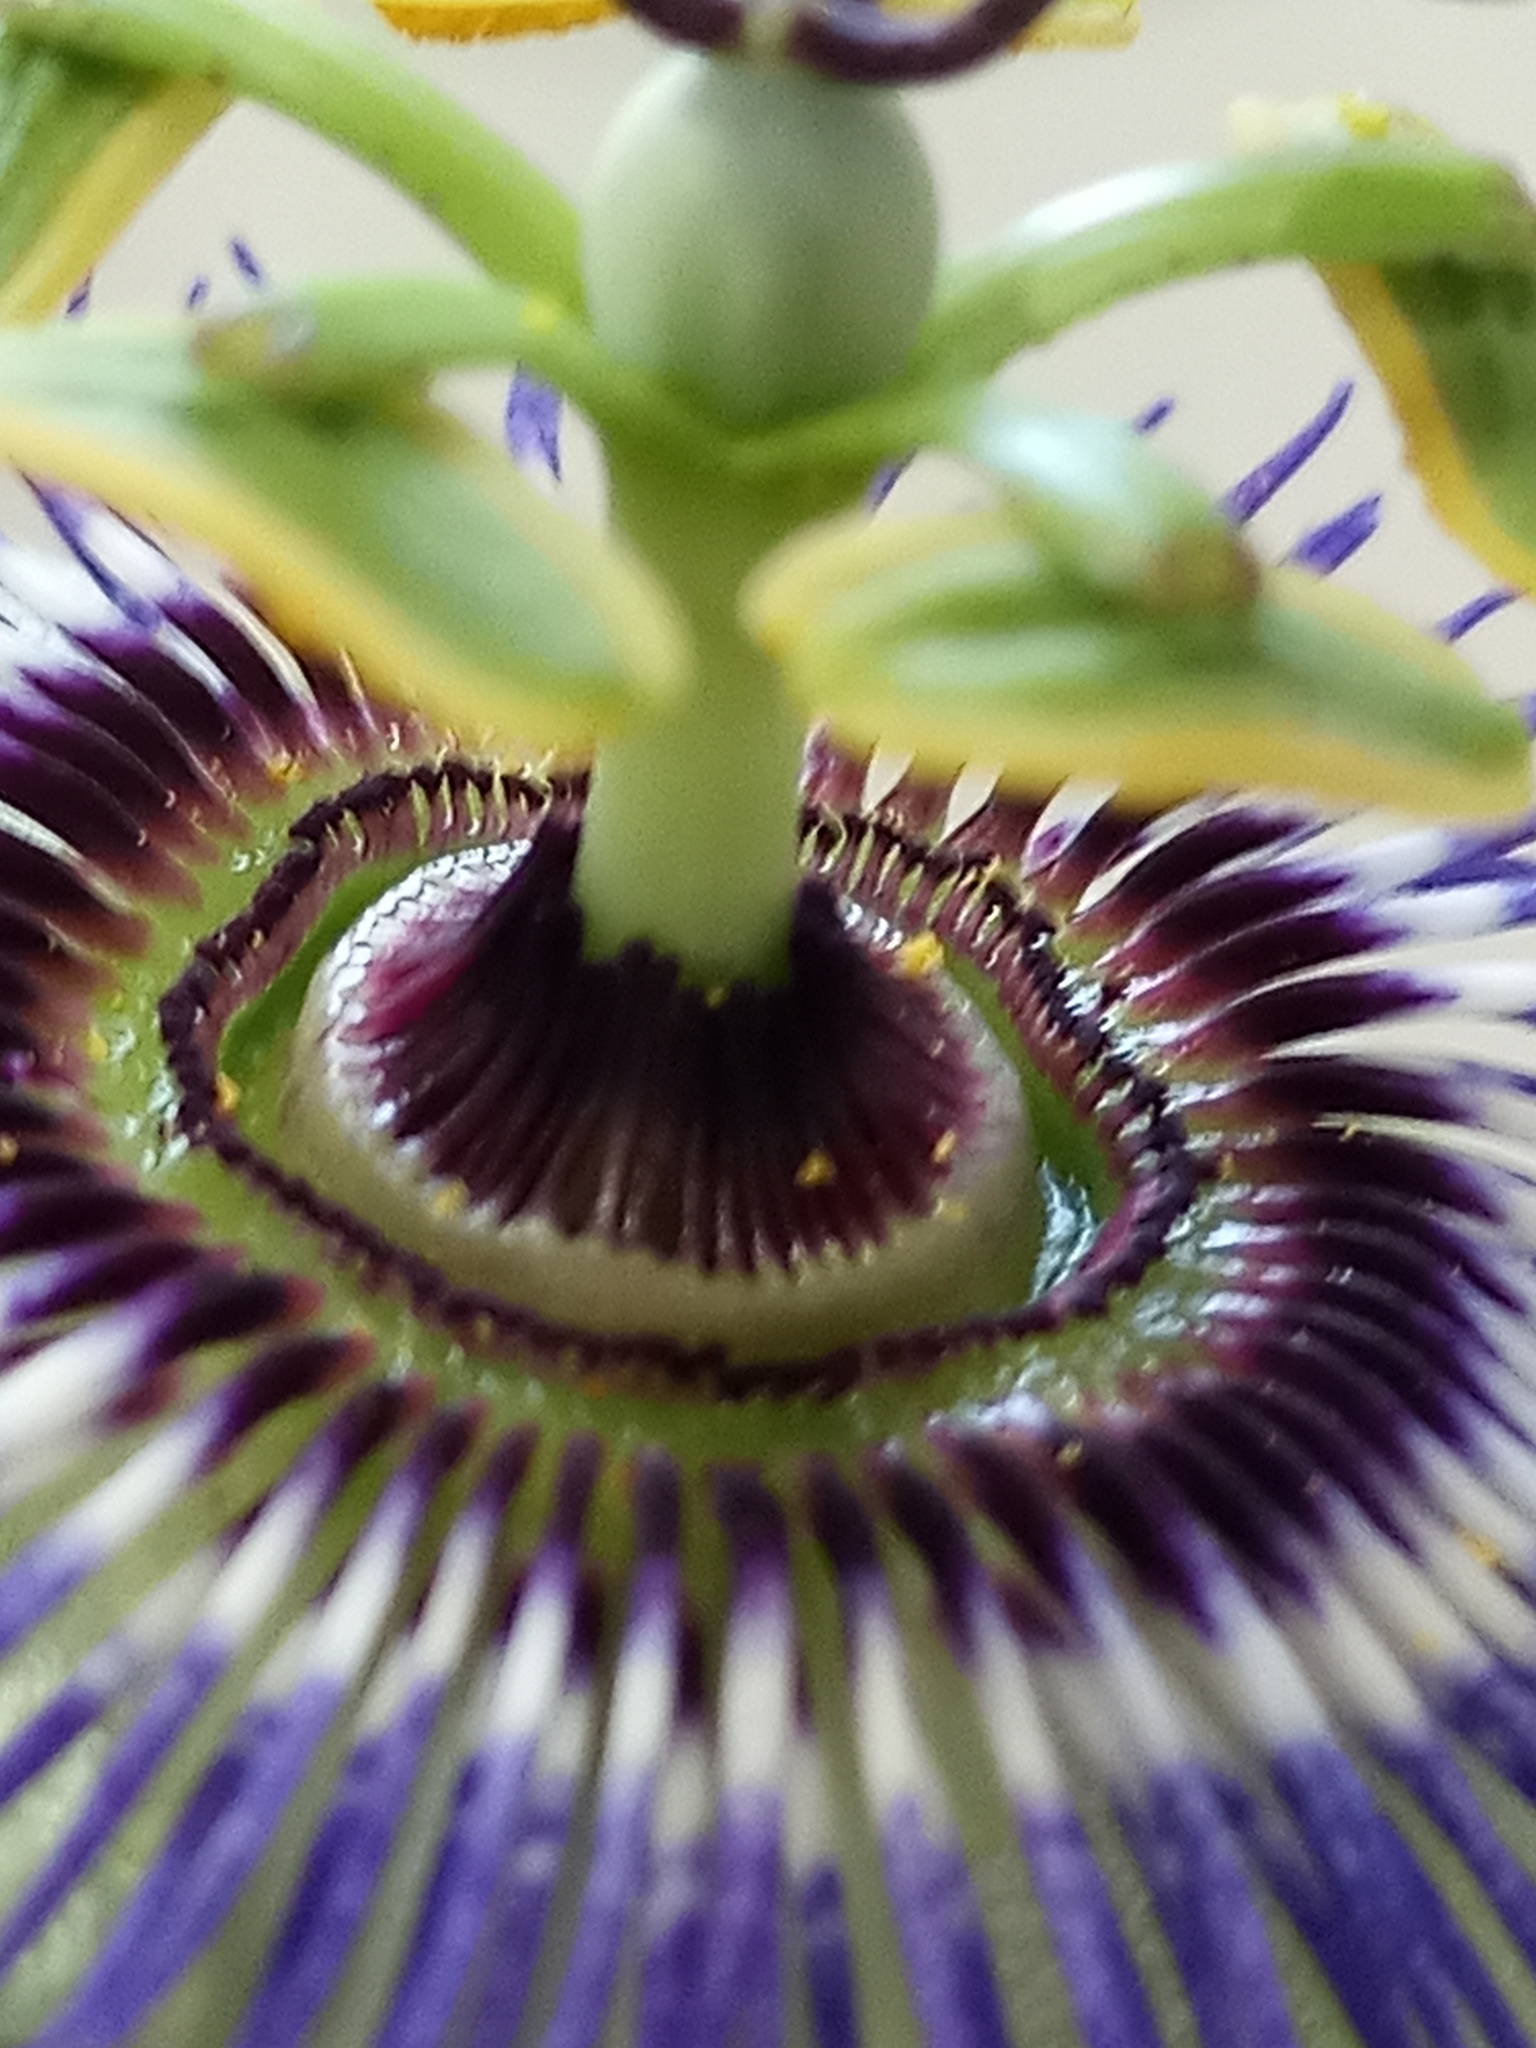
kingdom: Plantae
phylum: Tracheophyta
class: Magnoliopsida
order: Malpighiales
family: Passifloraceae
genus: Passiflora
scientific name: Passiflora caerulea
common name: Blue passionflower
